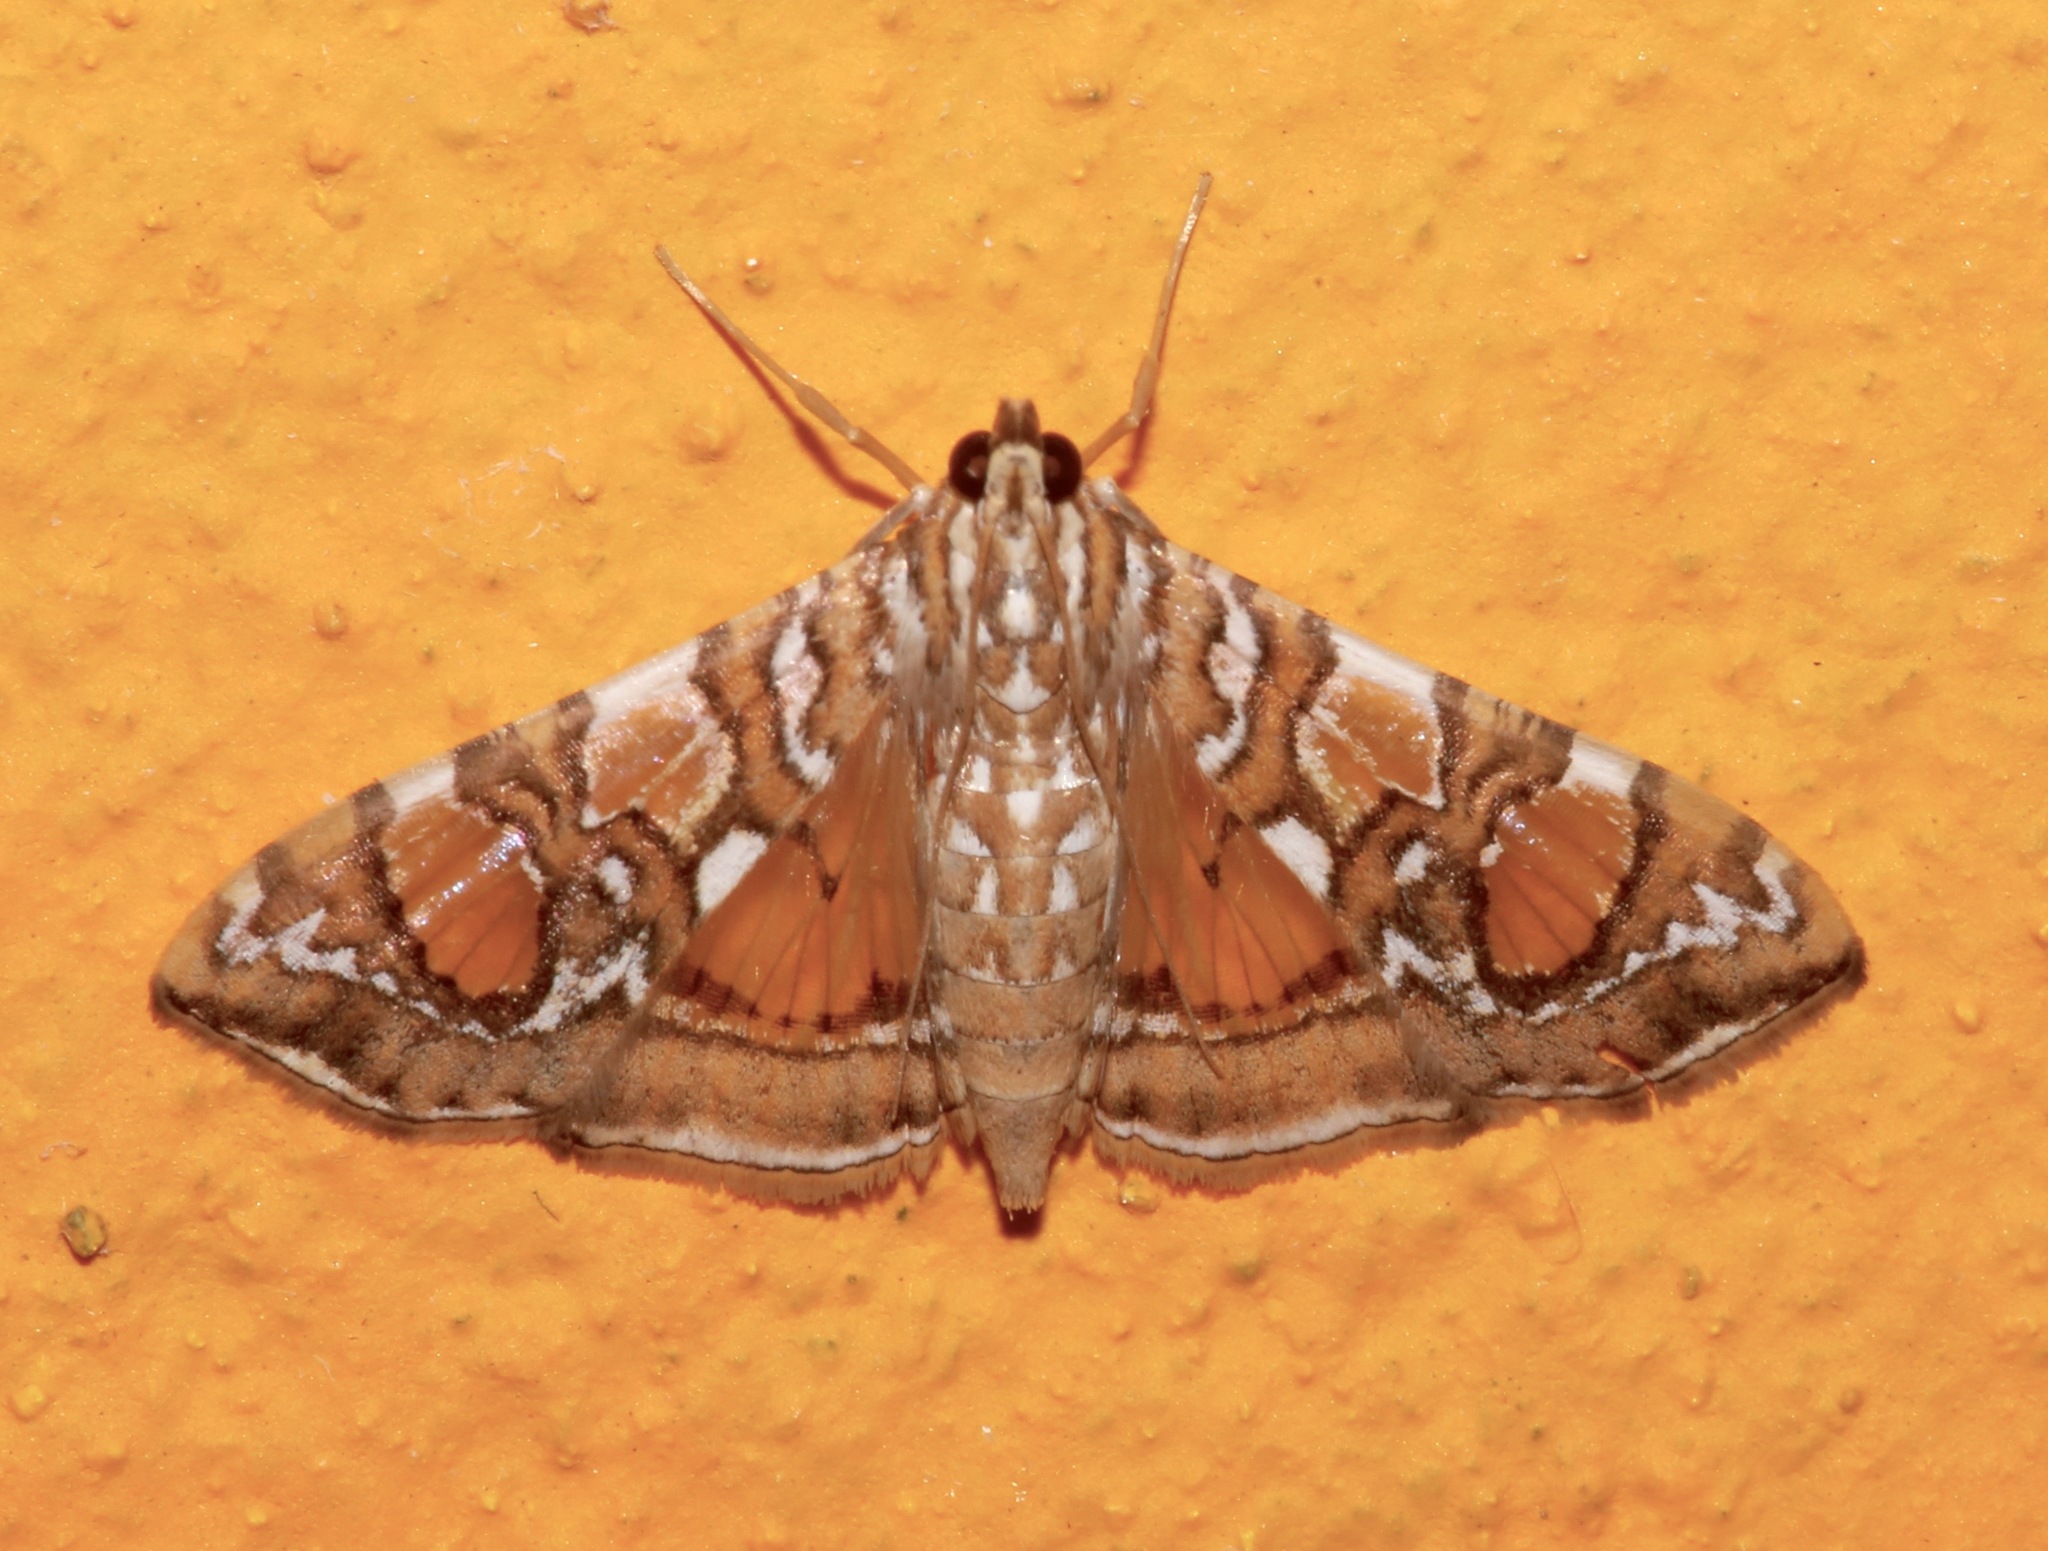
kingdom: Animalia
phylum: Arthropoda
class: Insecta
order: Lepidoptera
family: Crambidae
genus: Glyphodes
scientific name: Glyphodes sibillalis
